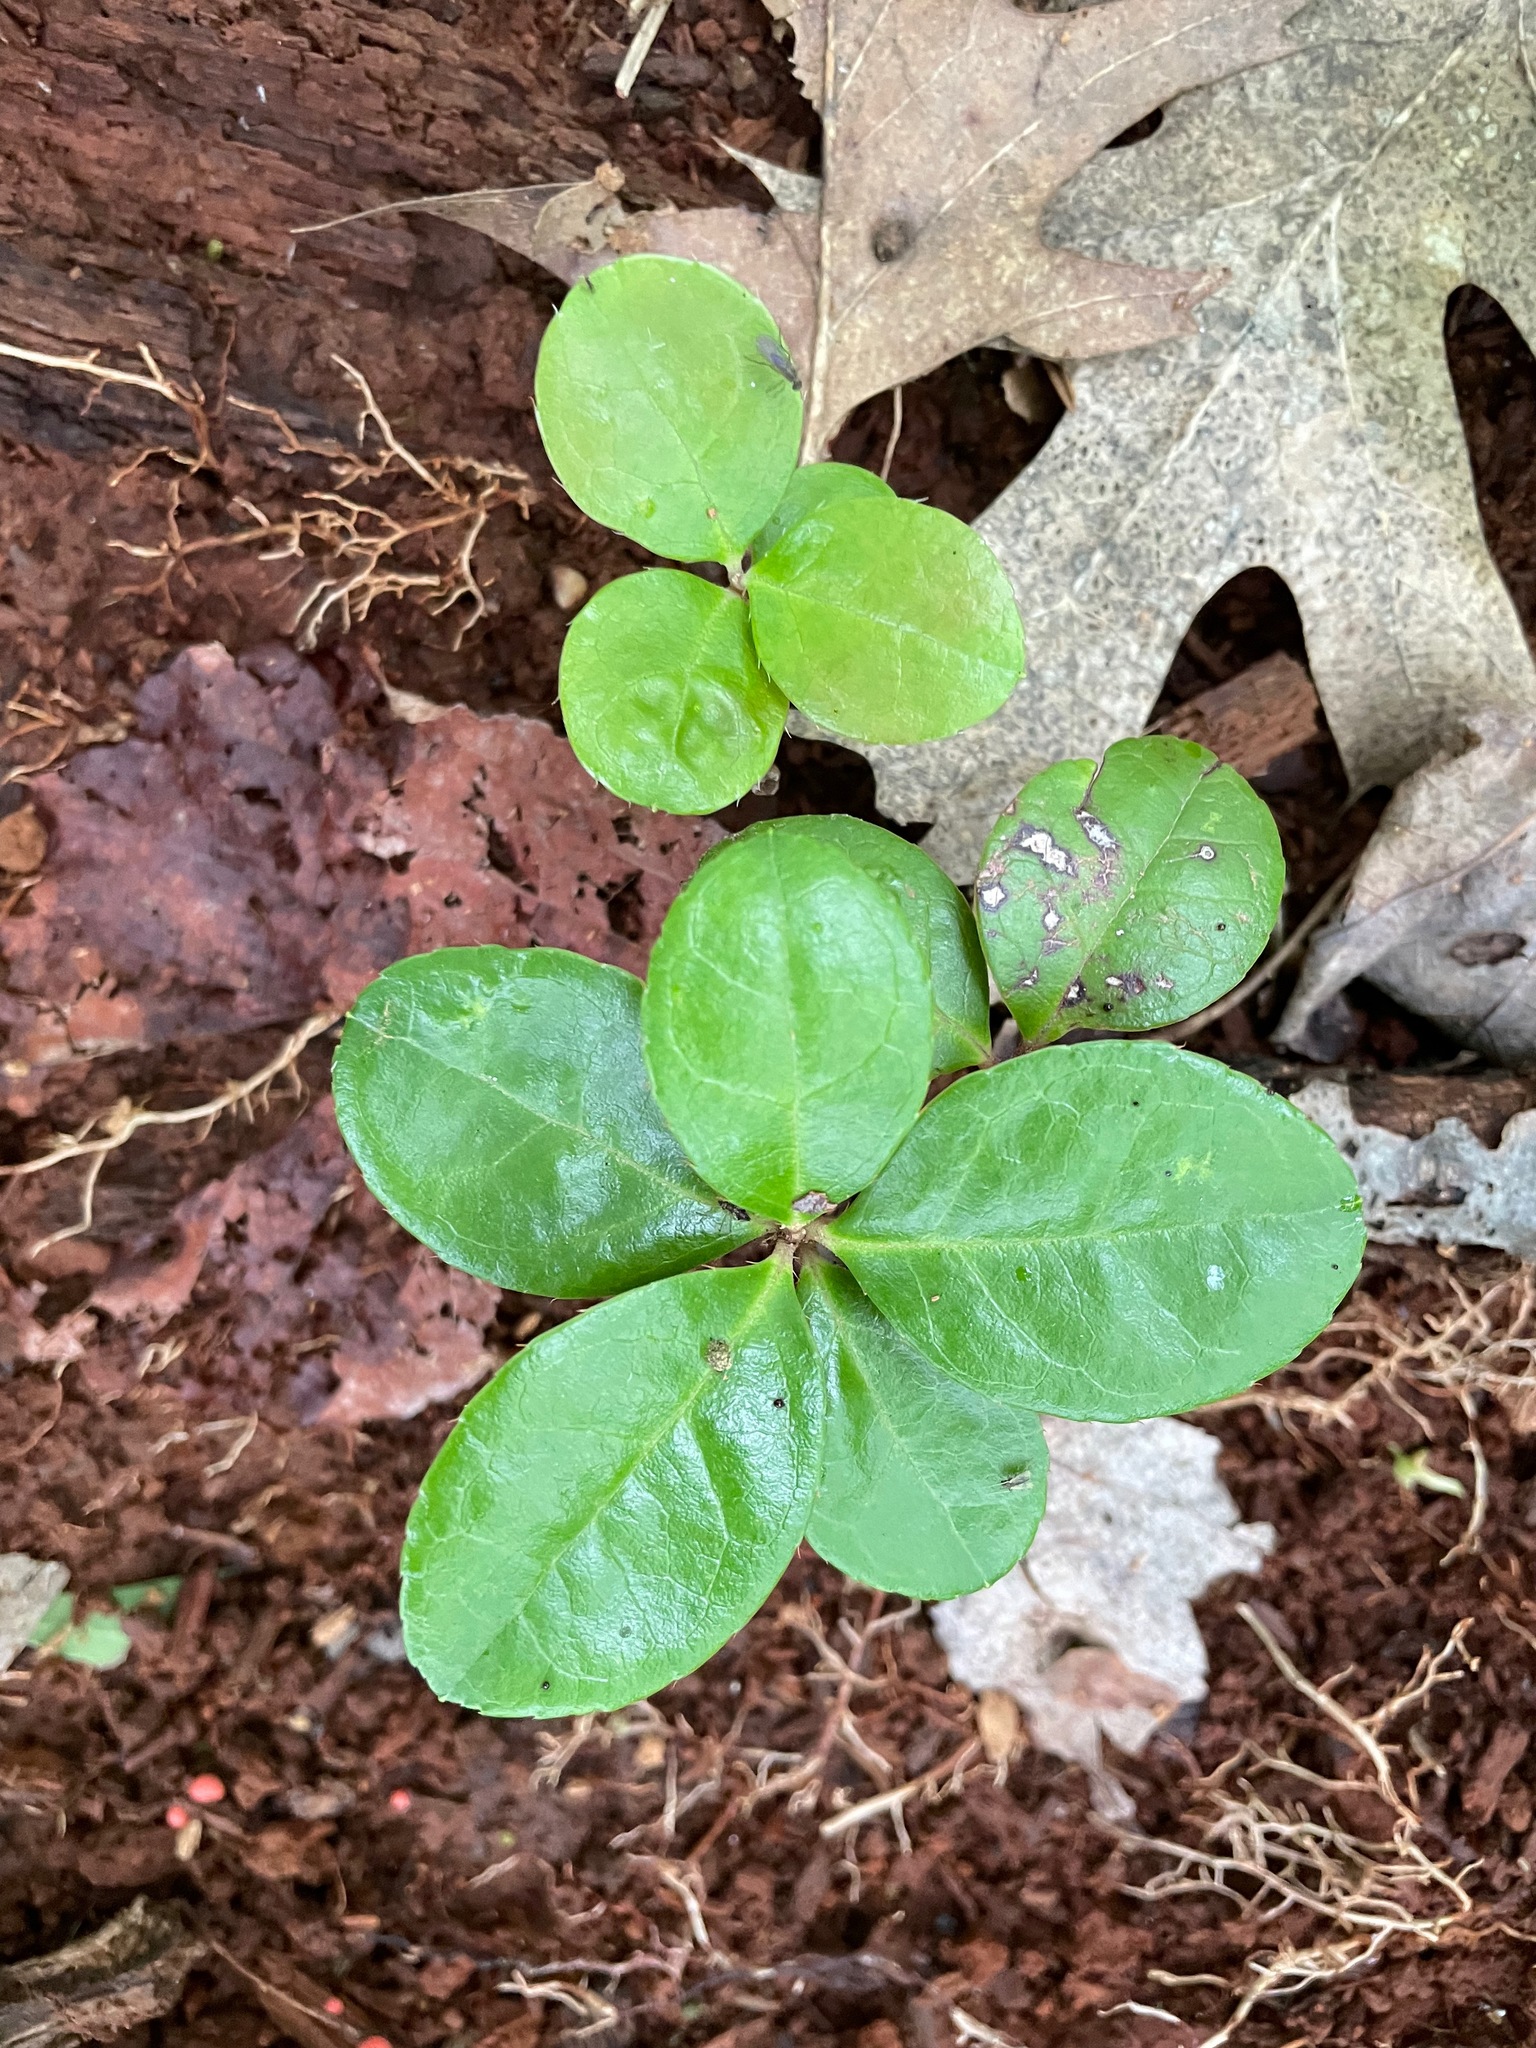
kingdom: Plantae
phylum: Tracheophyta
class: Magnoliopsida
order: Ericales
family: Ericaceae
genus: Gaultheria
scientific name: Gaultheria procumbens
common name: Checkerberry
